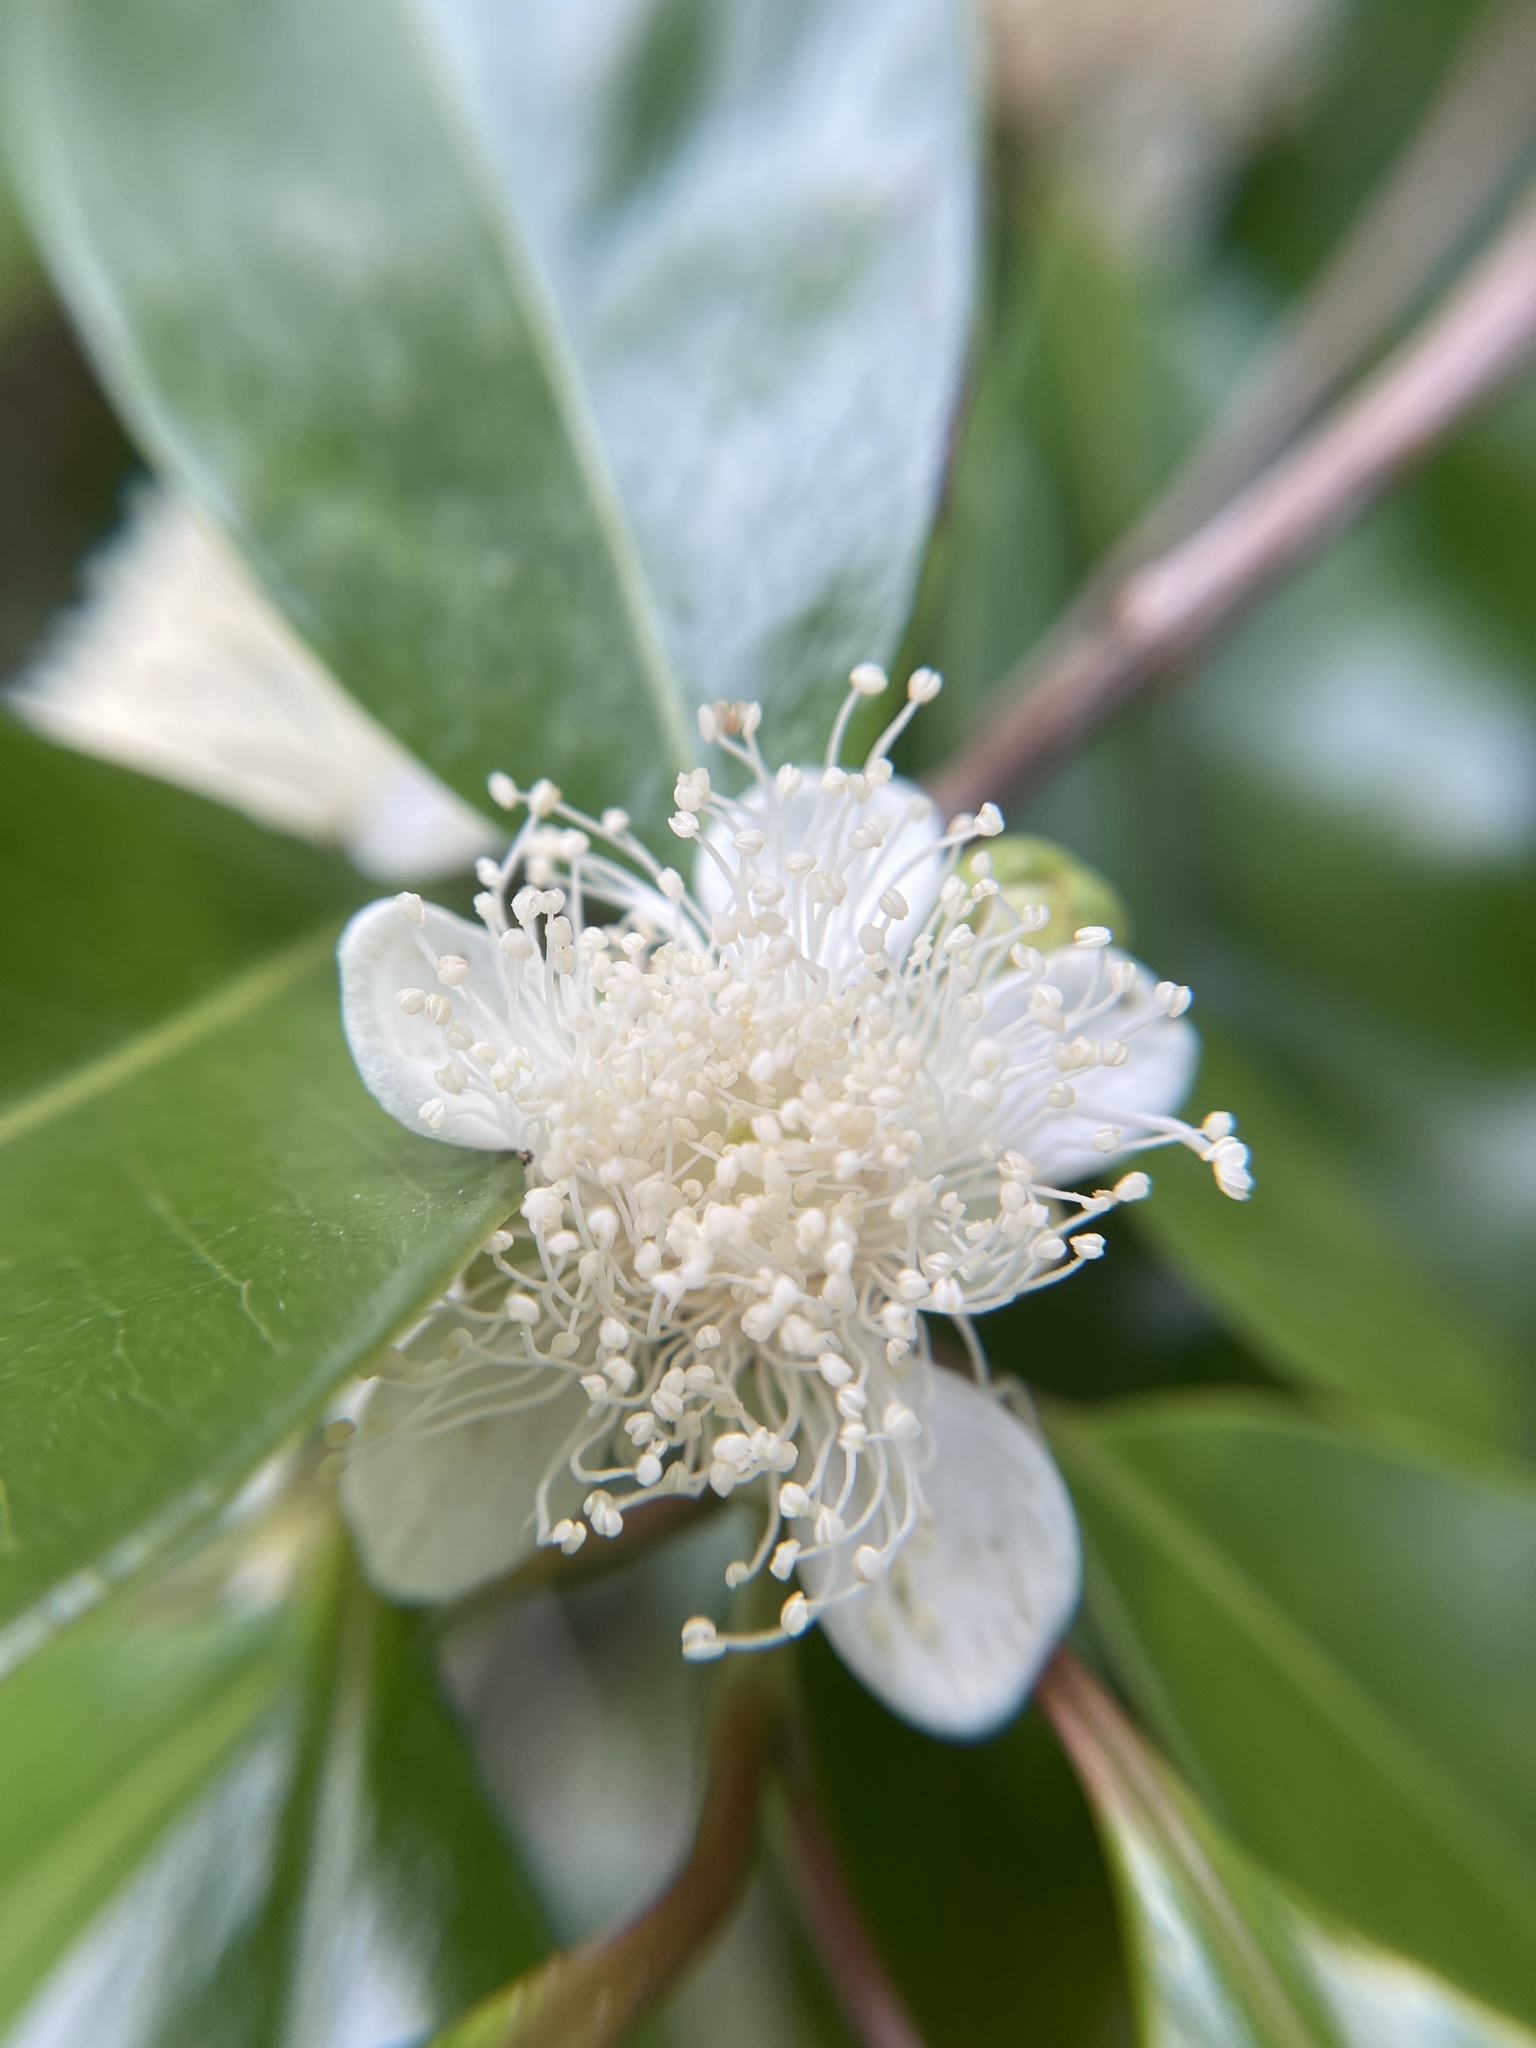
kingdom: Plantae
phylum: Tracheophyta
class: Magnoliopsida
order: Myrtales
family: Myrtaceae
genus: Psidium
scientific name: Psidium cattleianum
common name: Strawberry guava
